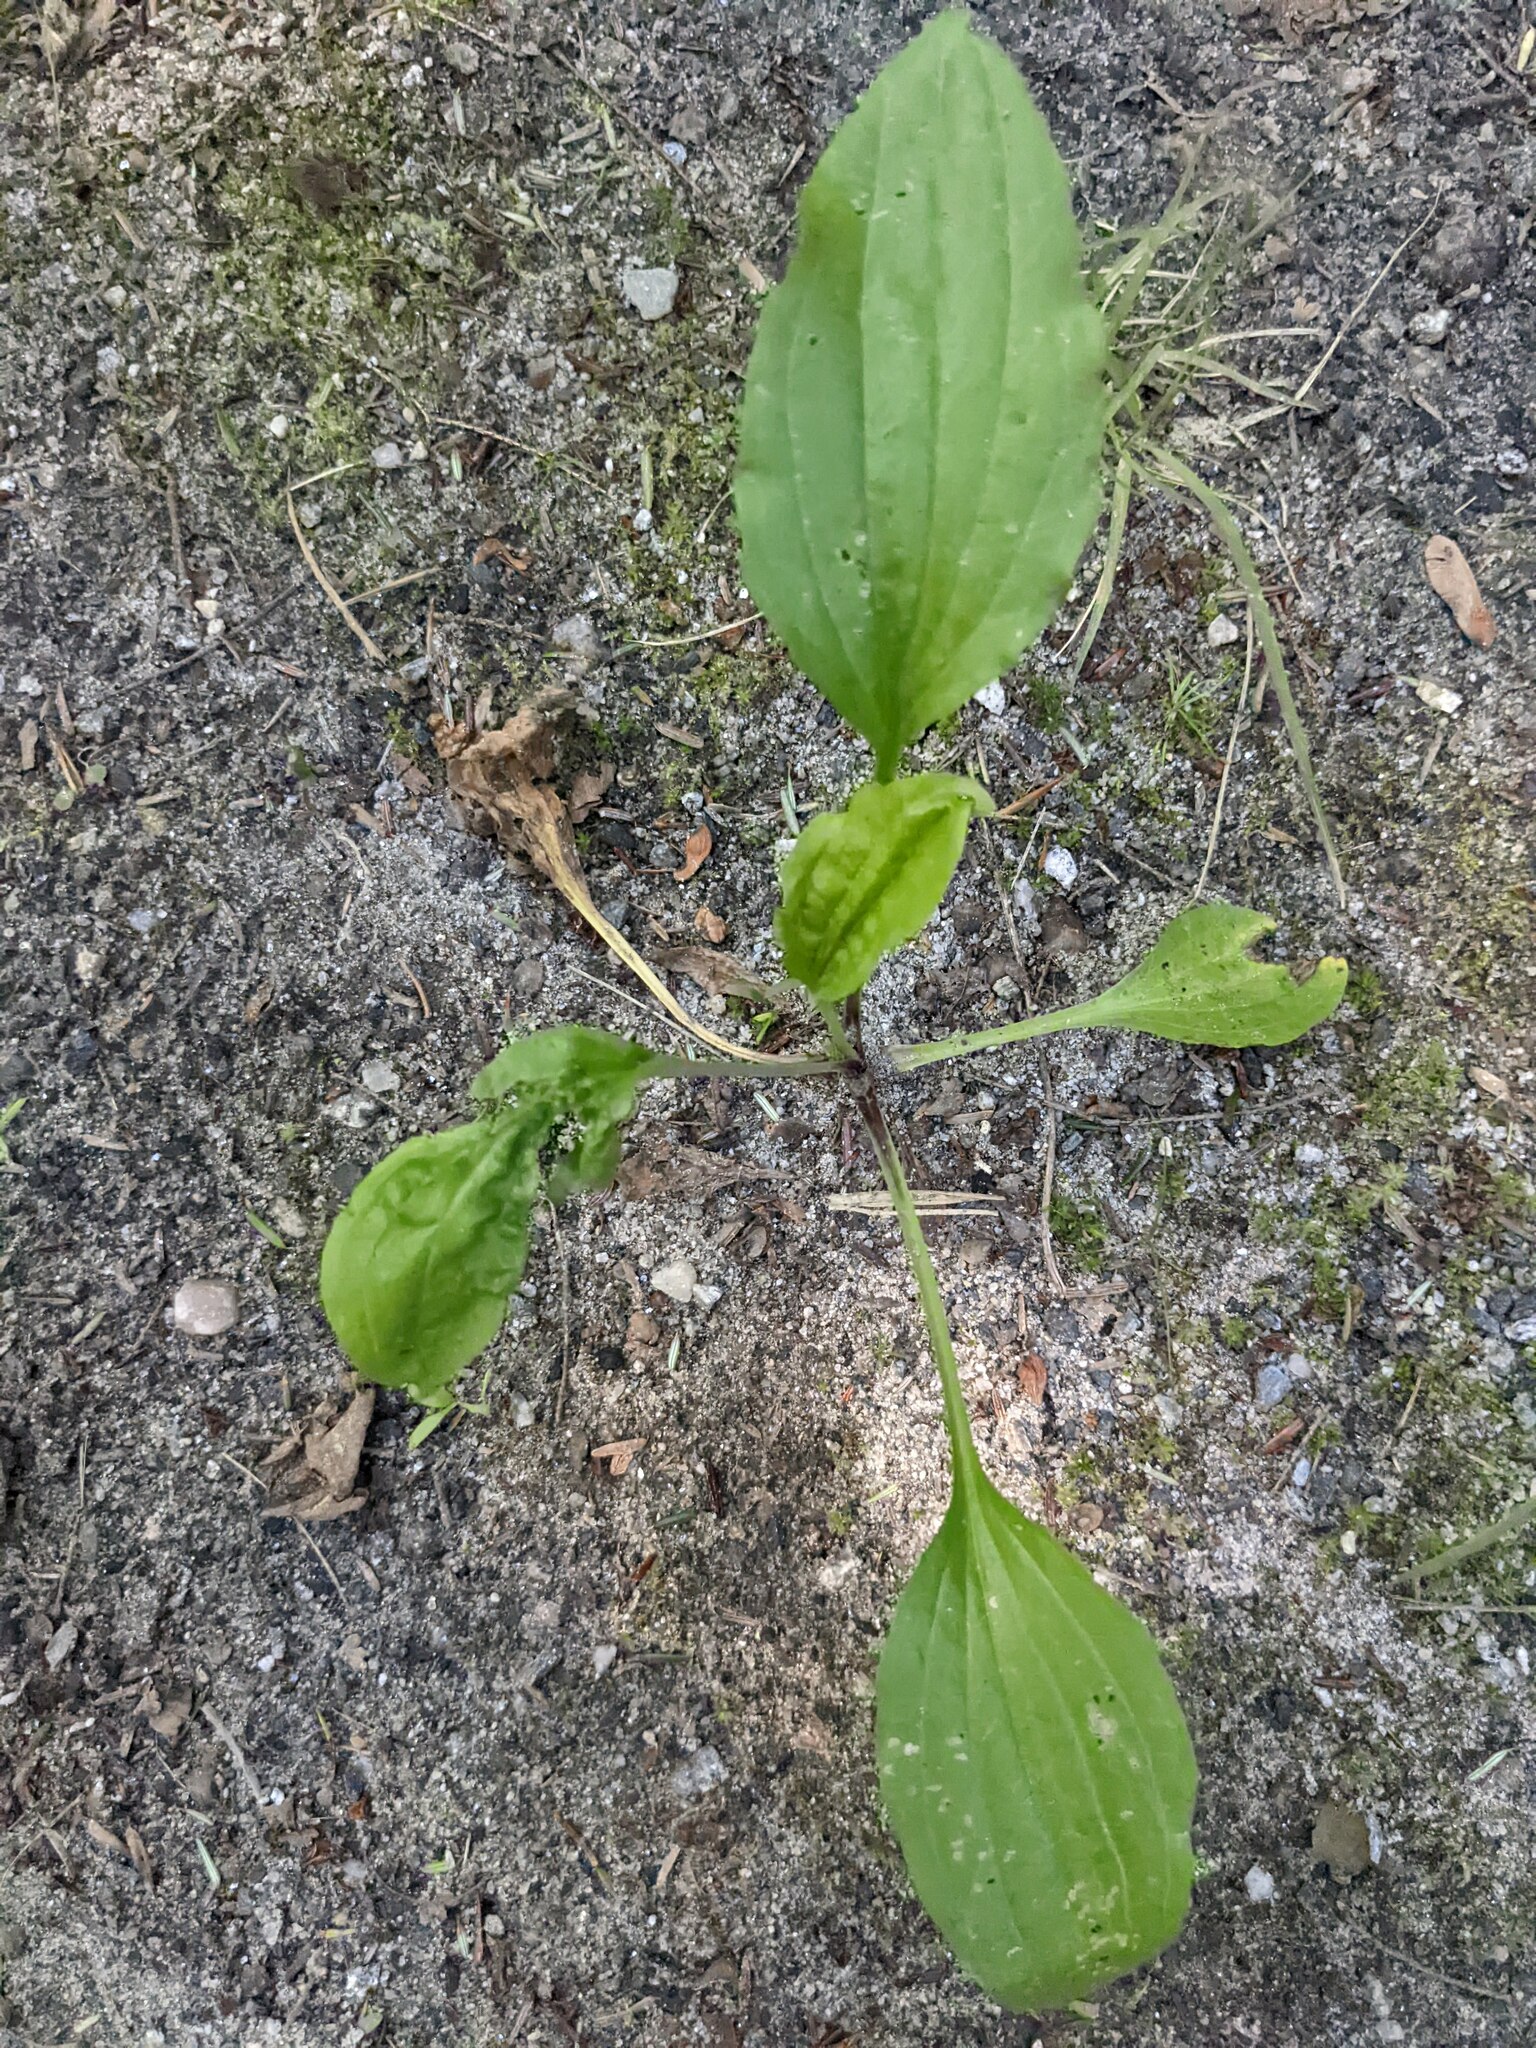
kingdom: Plantae
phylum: Tracheophyta
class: Magnoliopsida
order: Lamiales
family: Plantaginaceae
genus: Plantago
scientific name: Plantago rugelii
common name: American plantain
